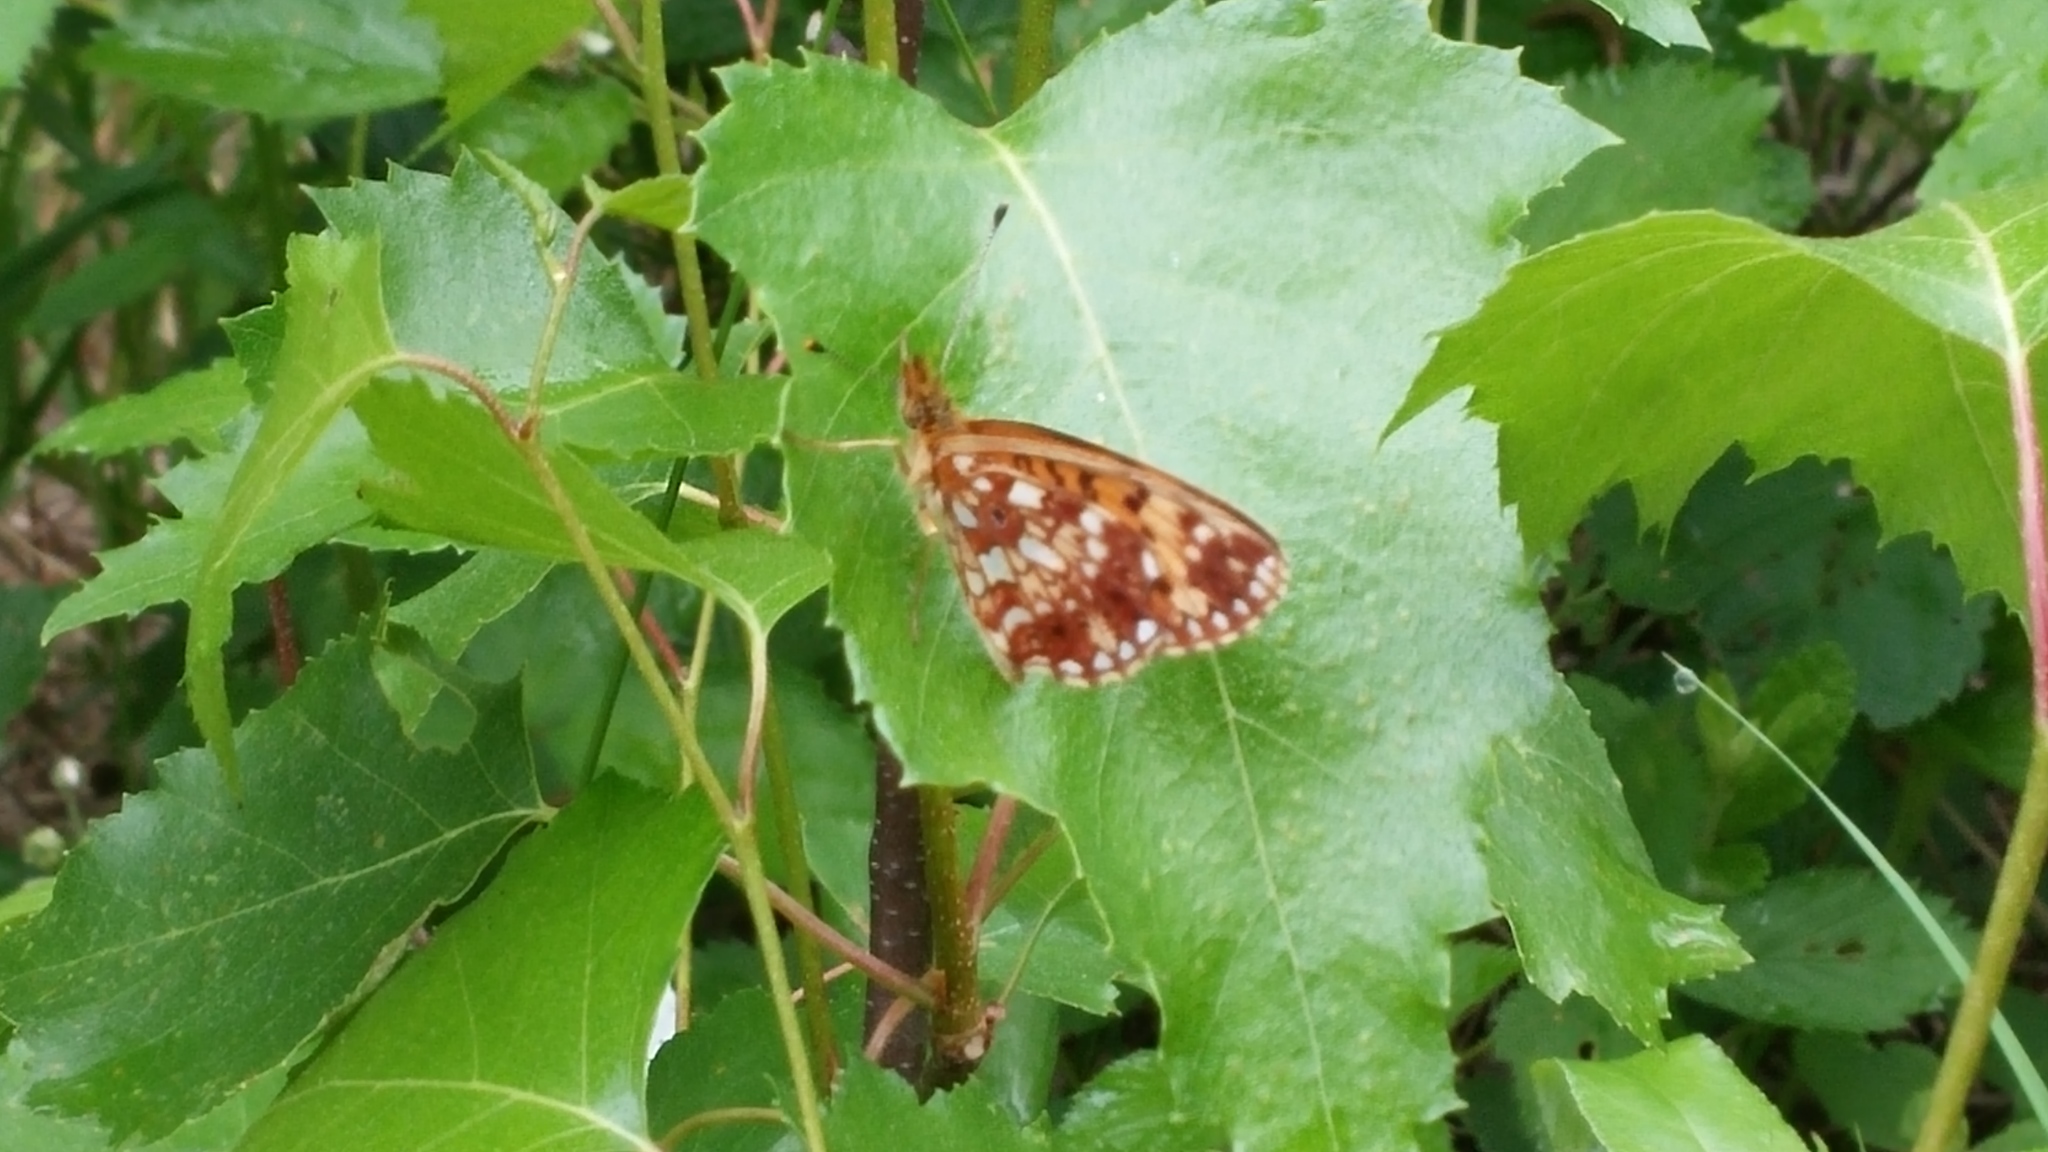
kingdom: Animalia
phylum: Arthropoda
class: Insecta
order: Lepidoptera
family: Nymphalidae
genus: Boloria
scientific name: Boloria
